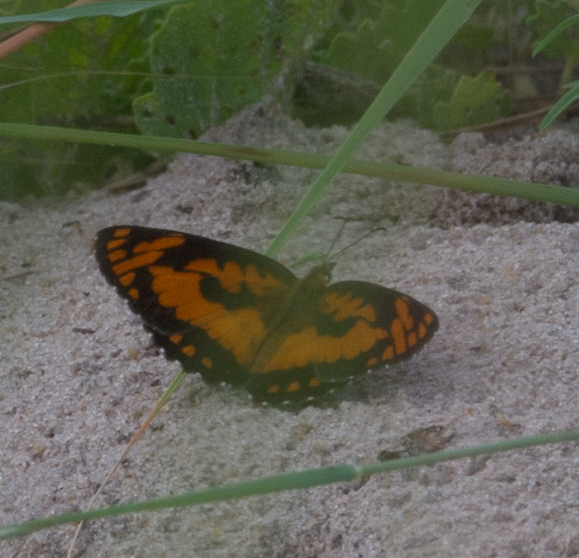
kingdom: Animalia
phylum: Arthropoda
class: Insecta
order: Lepidoptera
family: Nymphalidae
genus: Byblia
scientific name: Byblia acheloia
